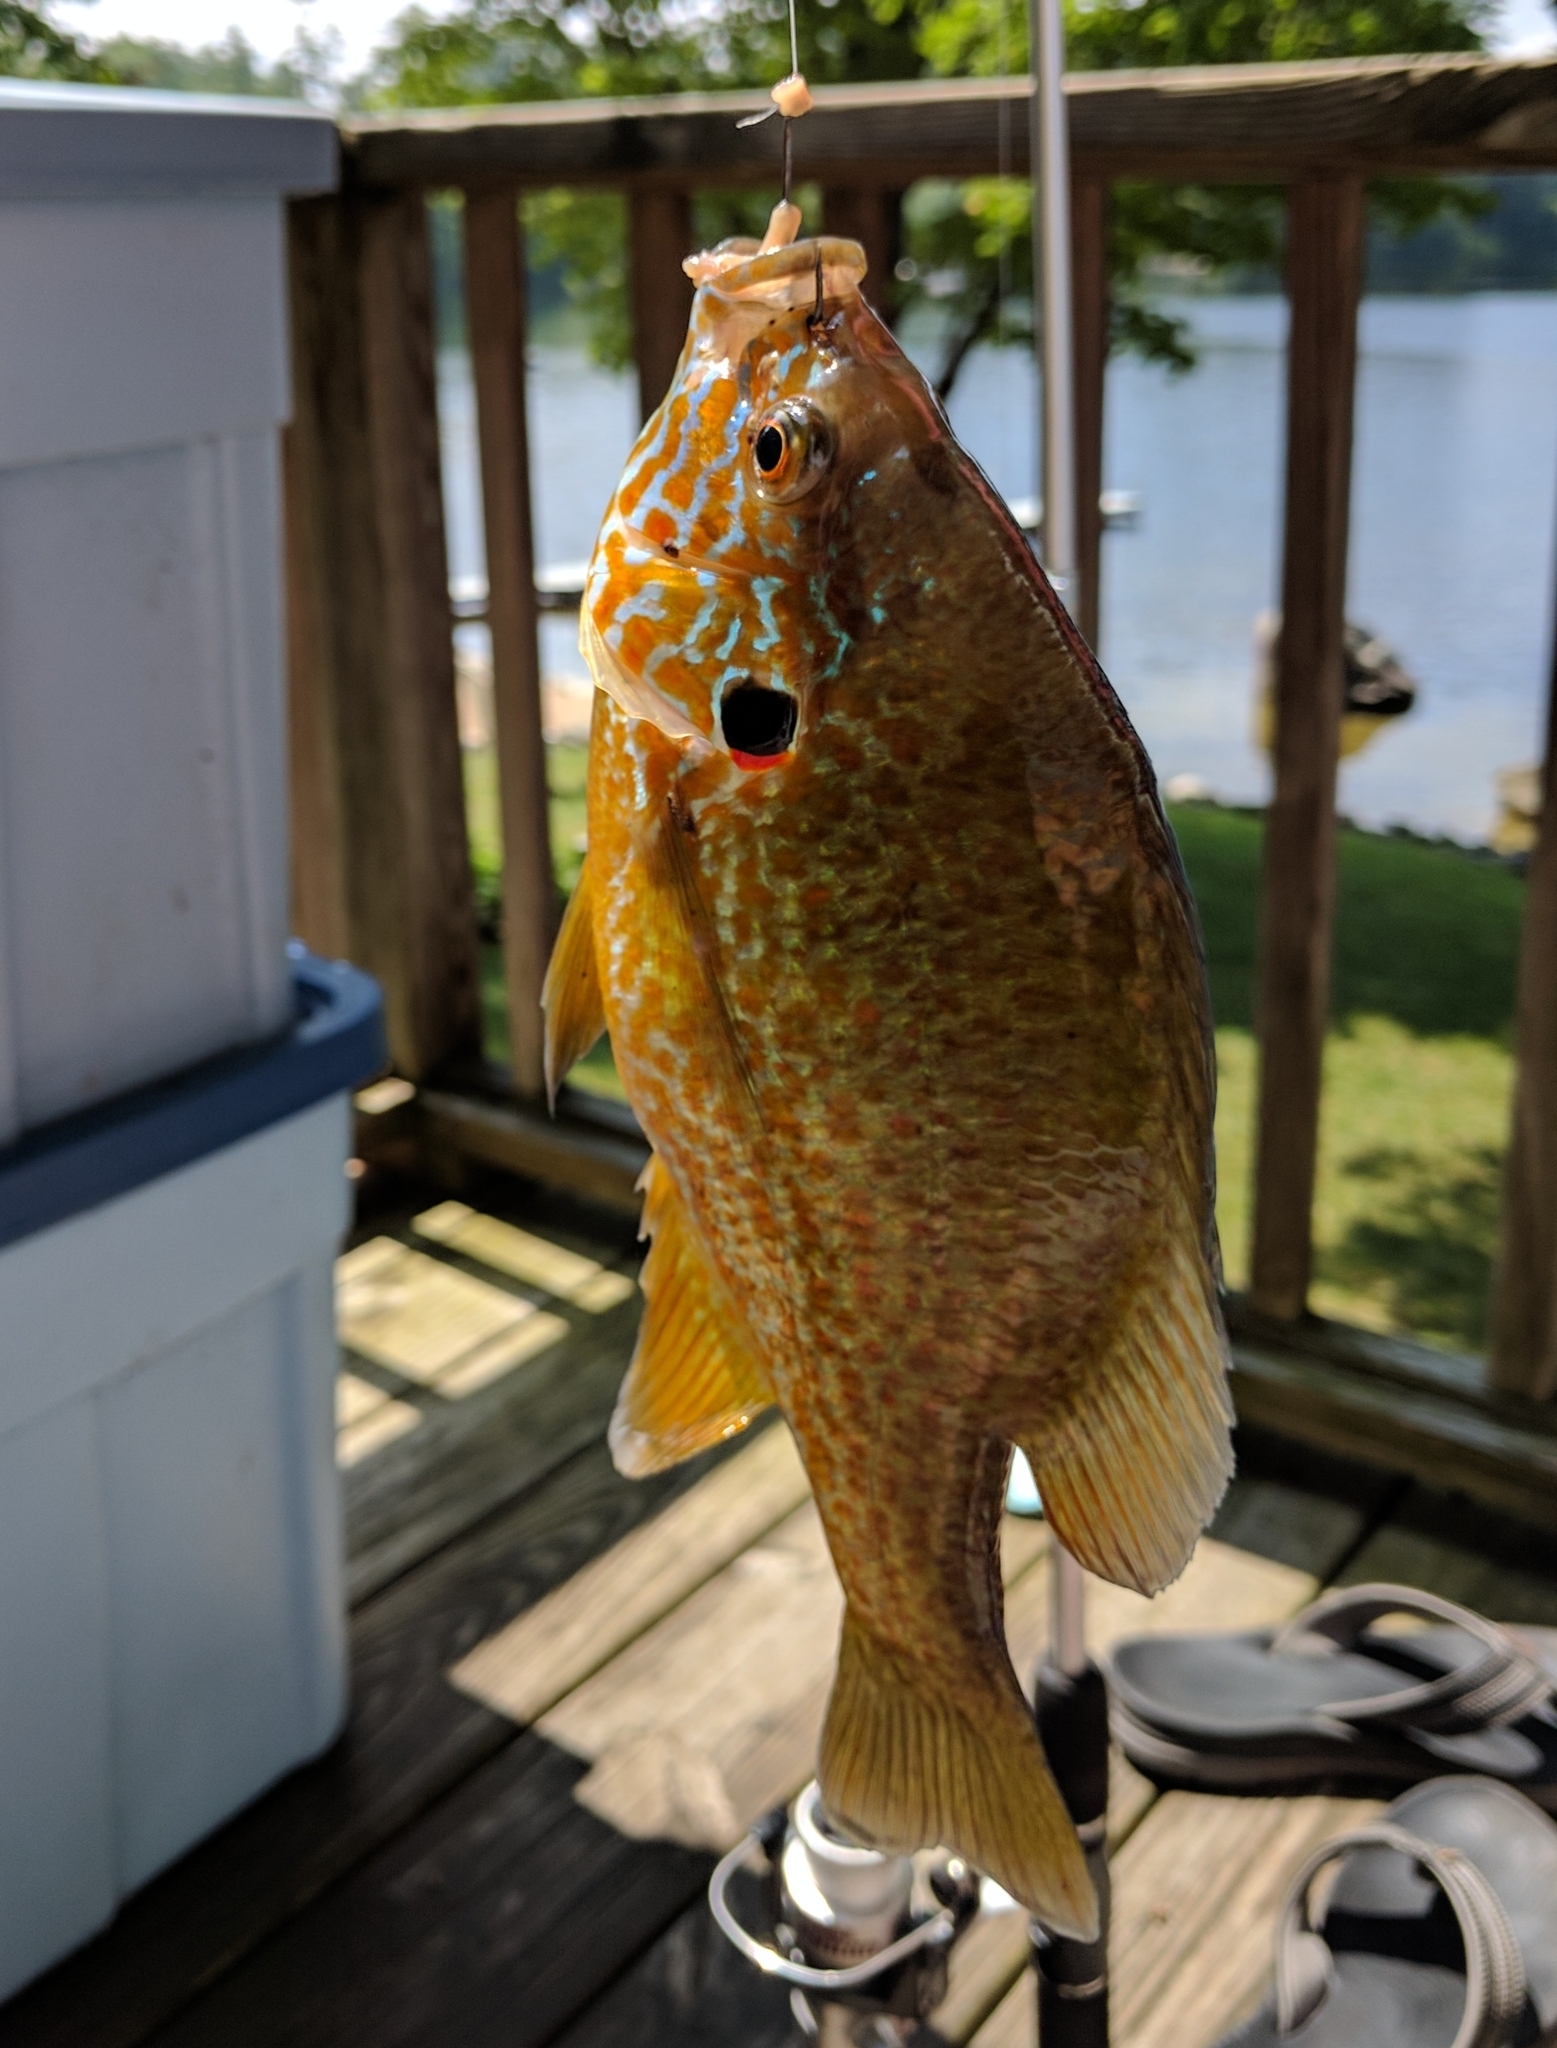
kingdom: Animalia
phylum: Chordata
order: Perciformes
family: Centrarchidae
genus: Lepomis
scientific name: Lepomis gibbosus
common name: Pumpkinseed
